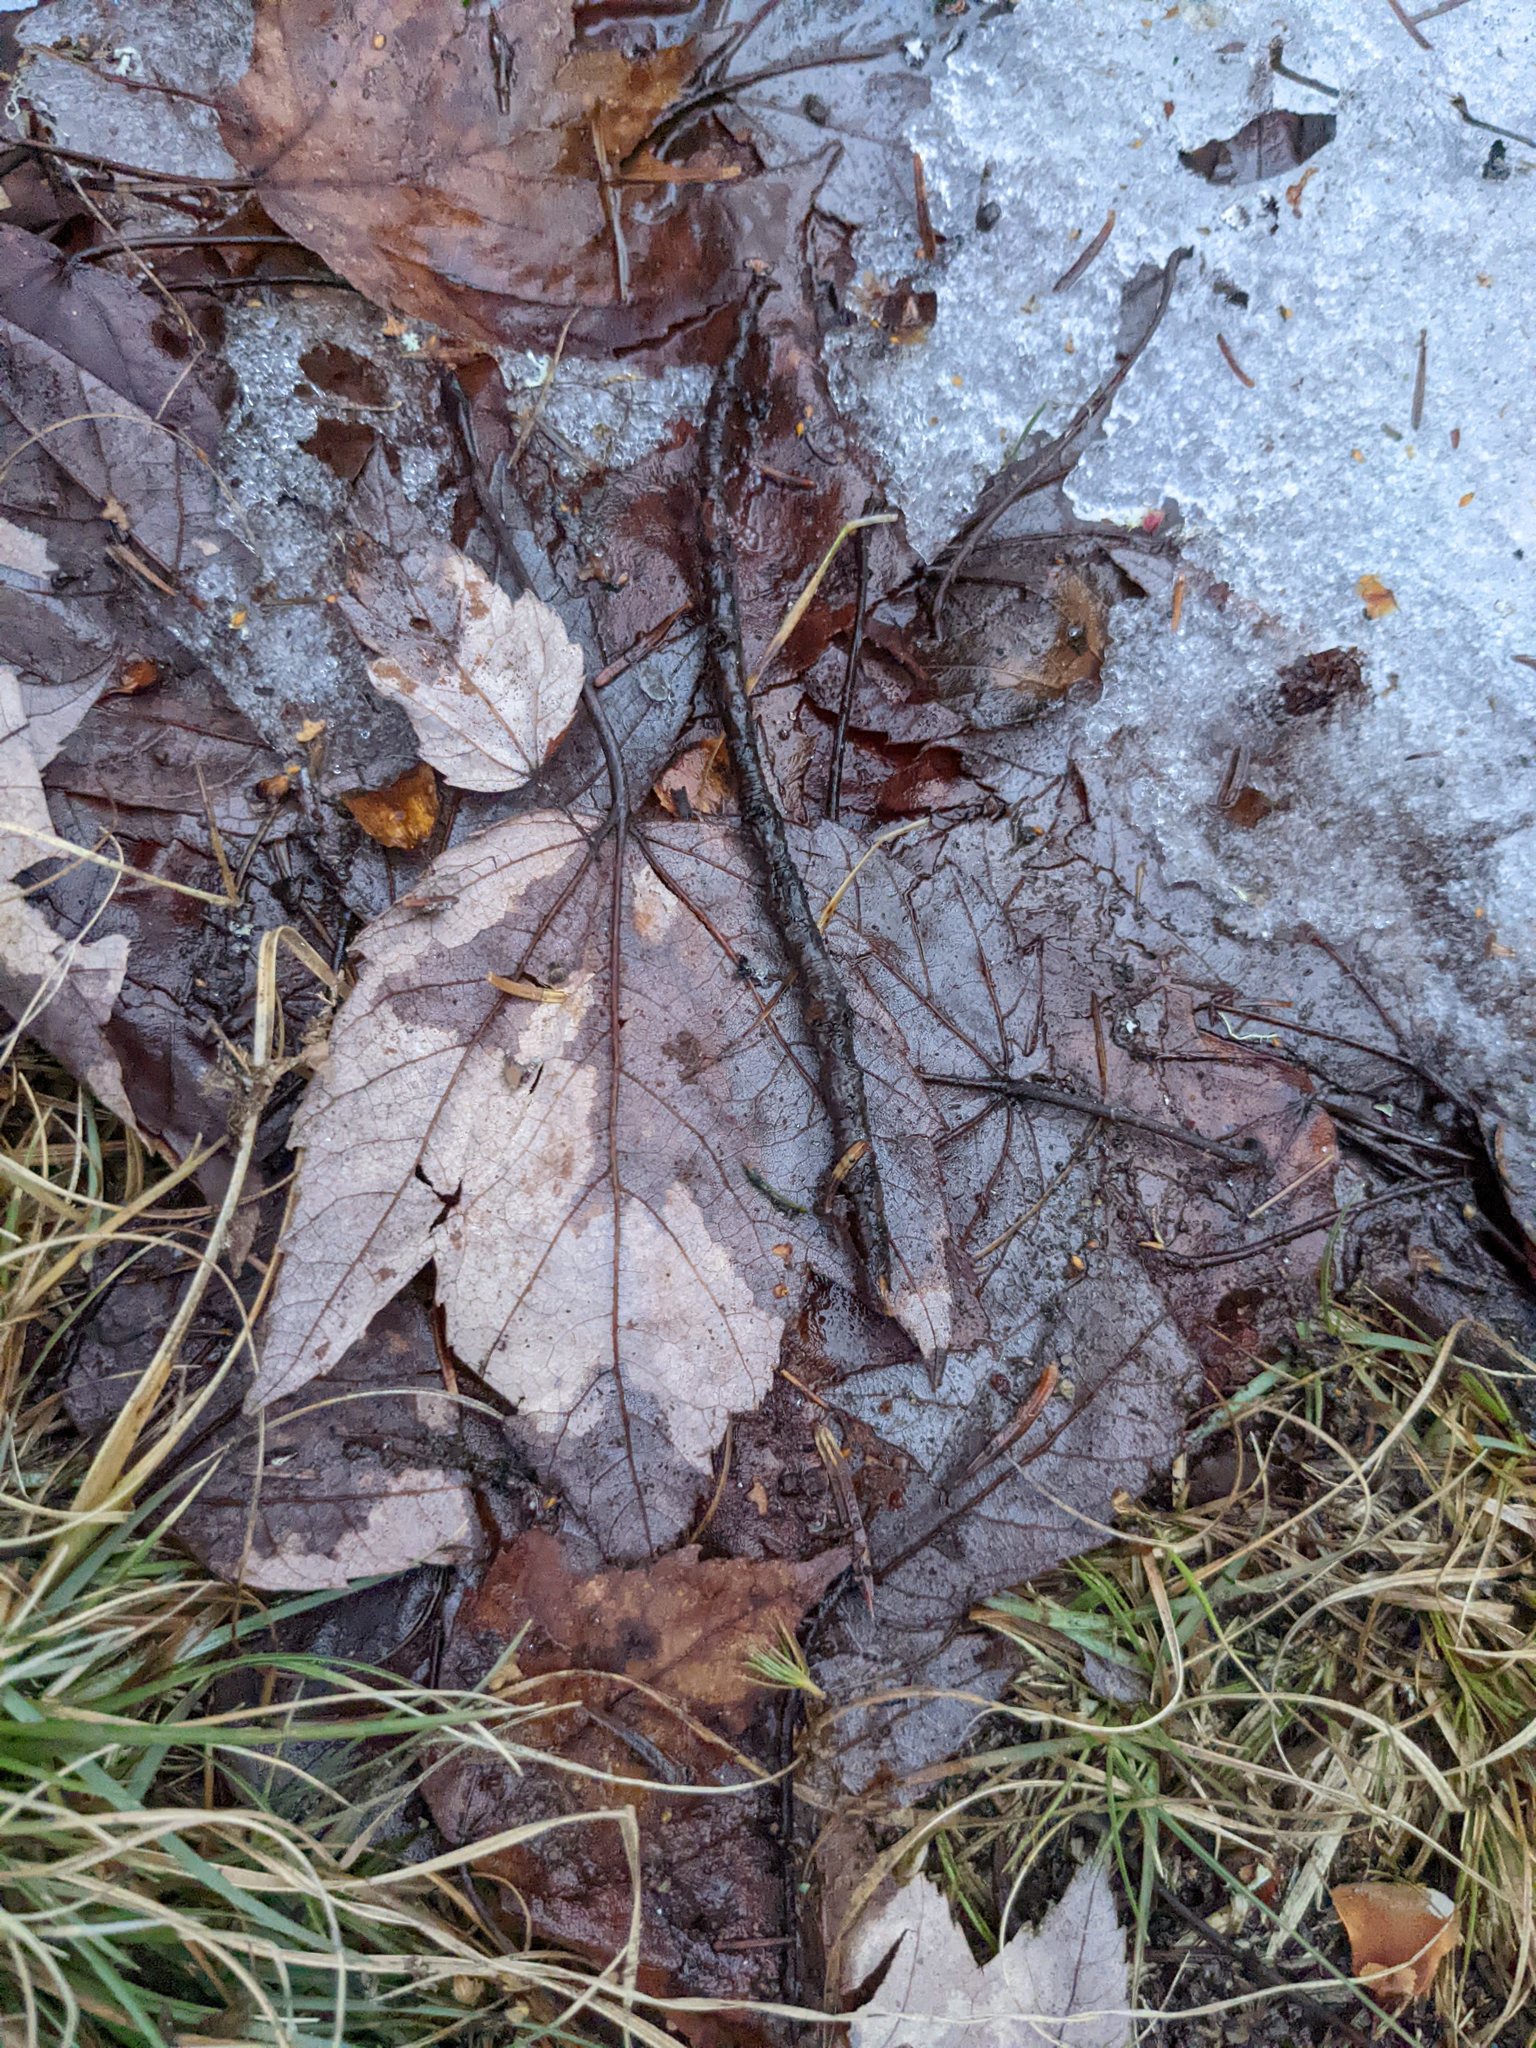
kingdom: Plantae
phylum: Tracheophyta
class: Magnoliopsida
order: Sapindales
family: Sapindaceae
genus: Acer
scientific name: Acer rubrum
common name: Red maple
